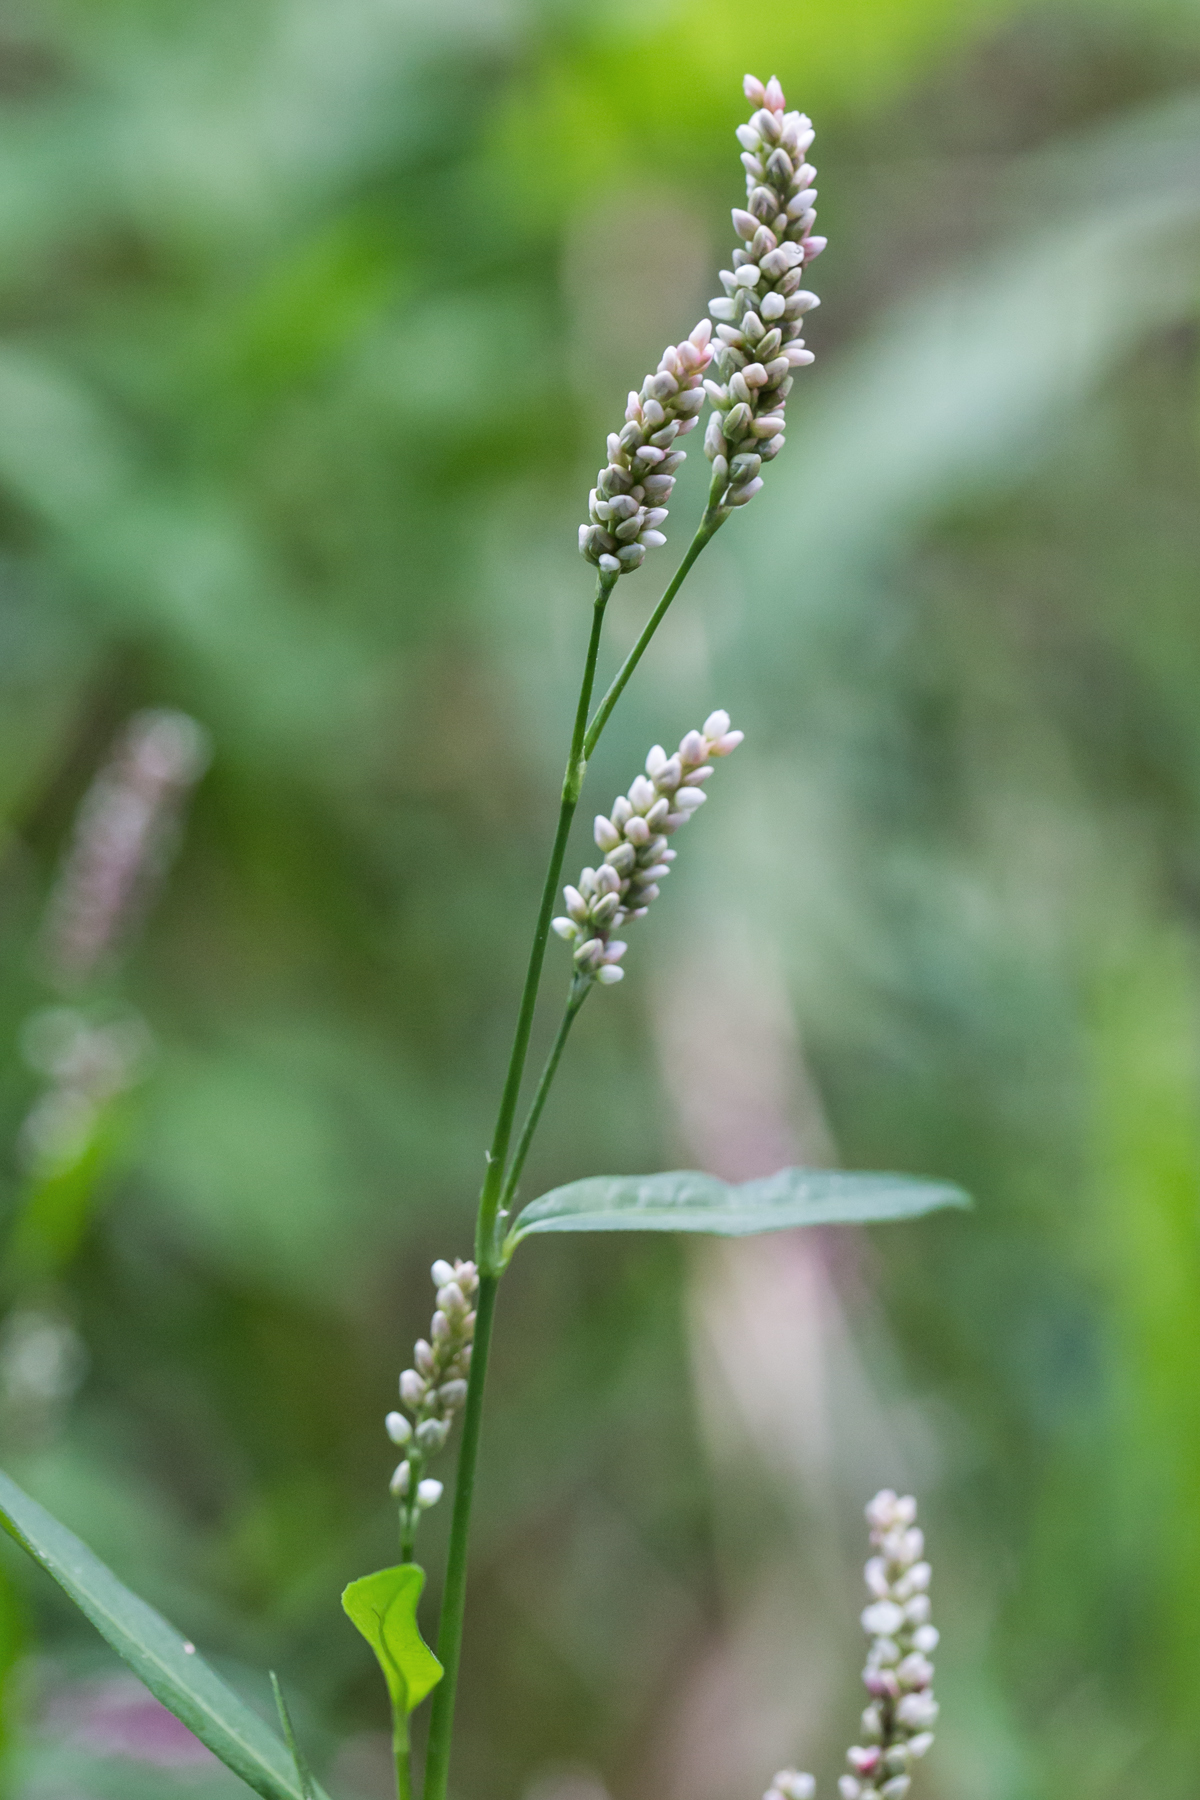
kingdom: Plantae
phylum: Tracheophyta
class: Magnoliopsida
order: Caryophyllales
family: Polygonaceae
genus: Persicaria
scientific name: Persicaria maculosa
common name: Redshank
